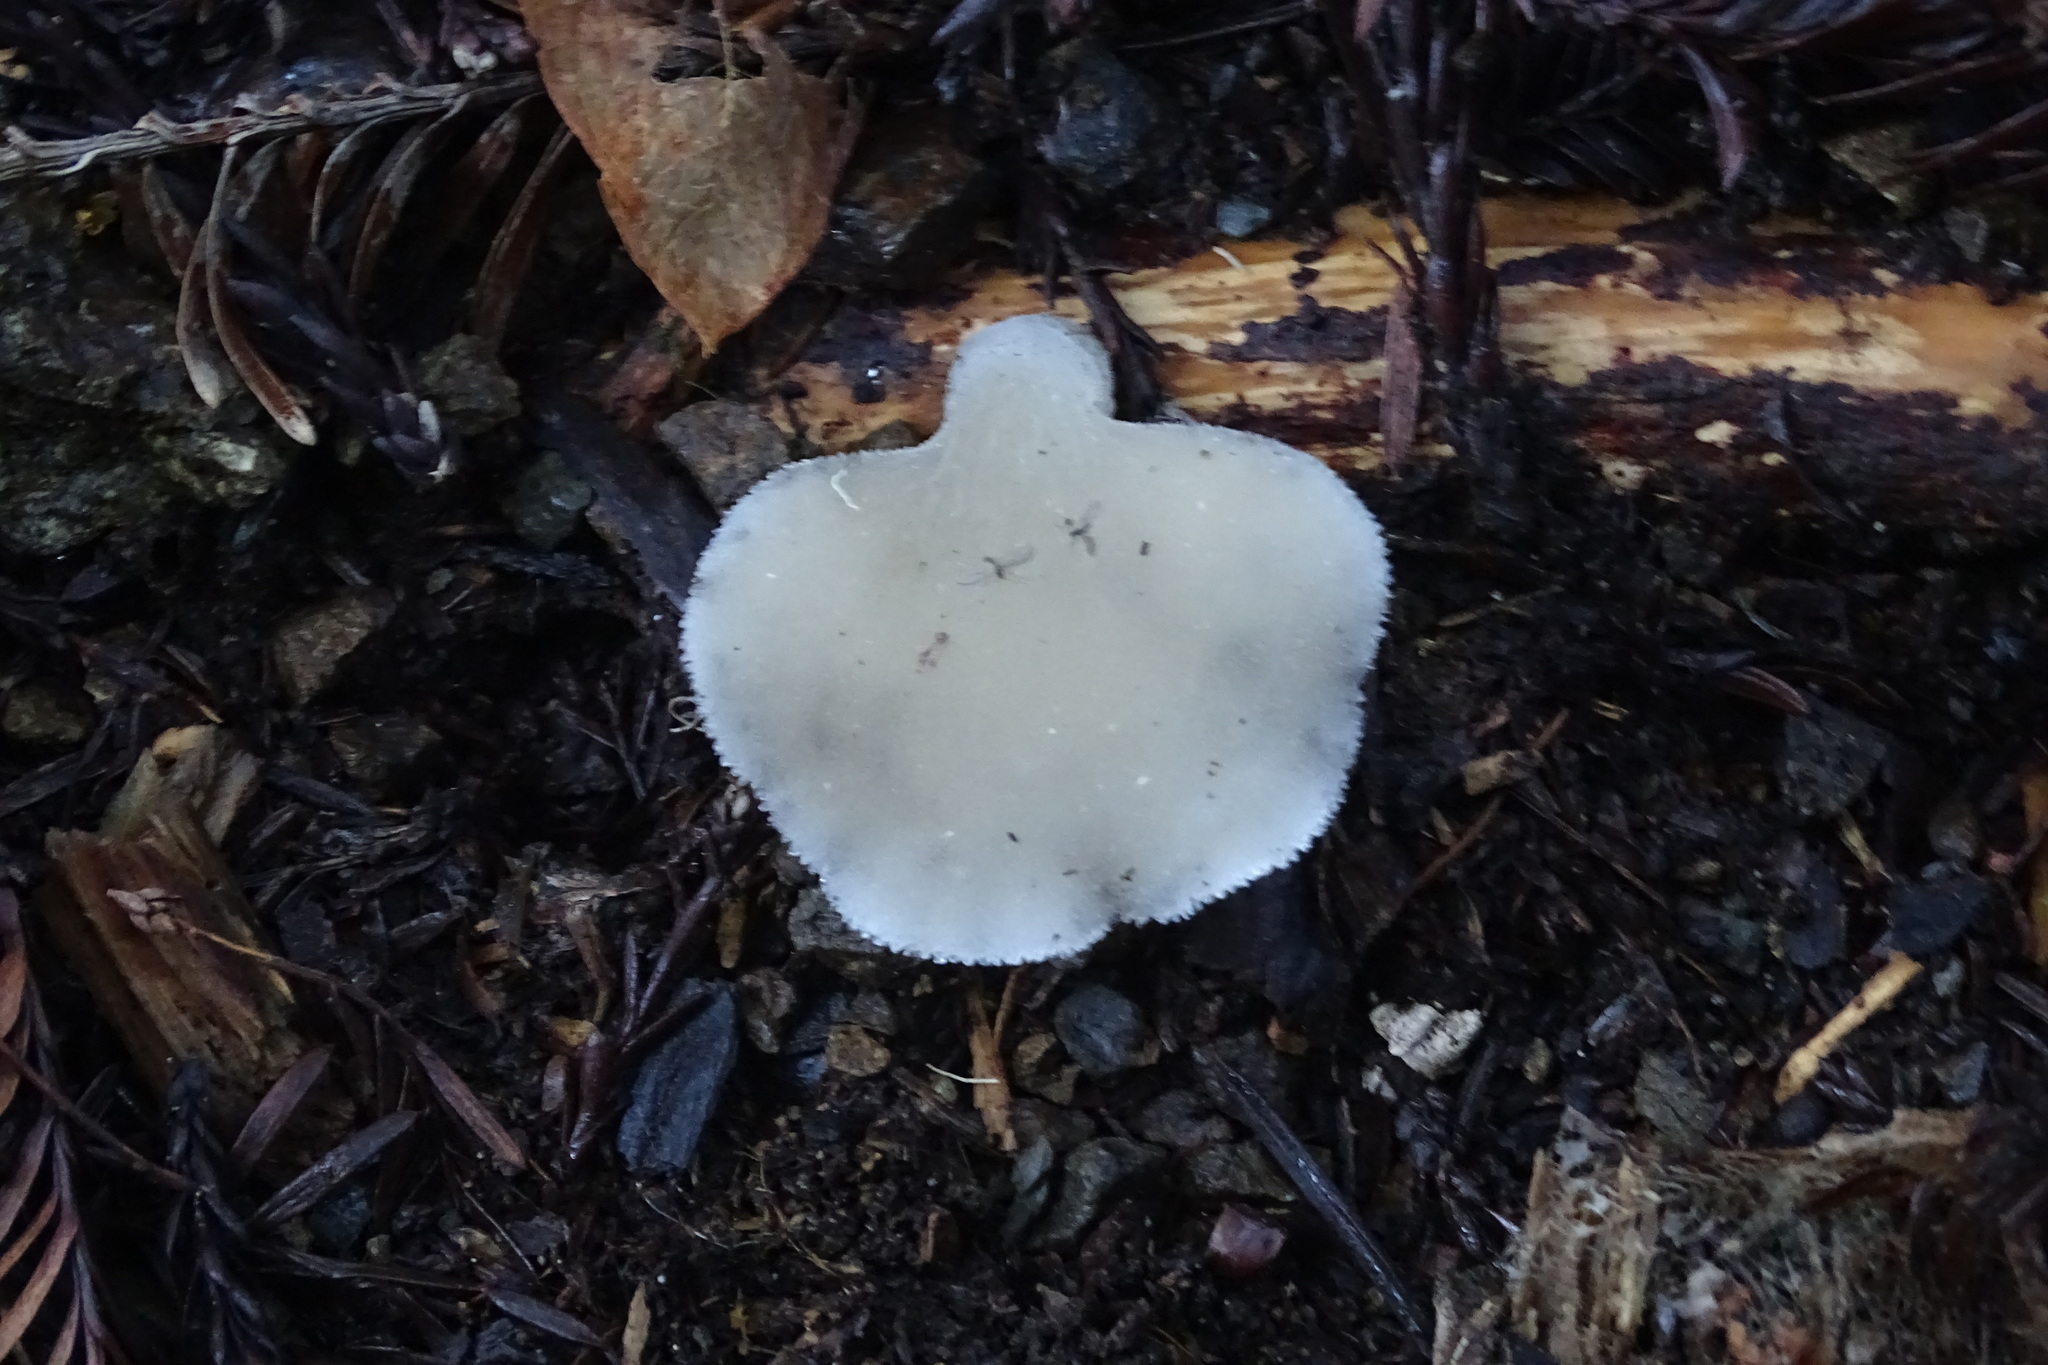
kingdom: Fungi
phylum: Basidiomycota
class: Agaricomycetes
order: Auriculariales
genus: Pseudohydnum
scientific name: Pseudohydnum gelatinosum
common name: Jelly tongue
